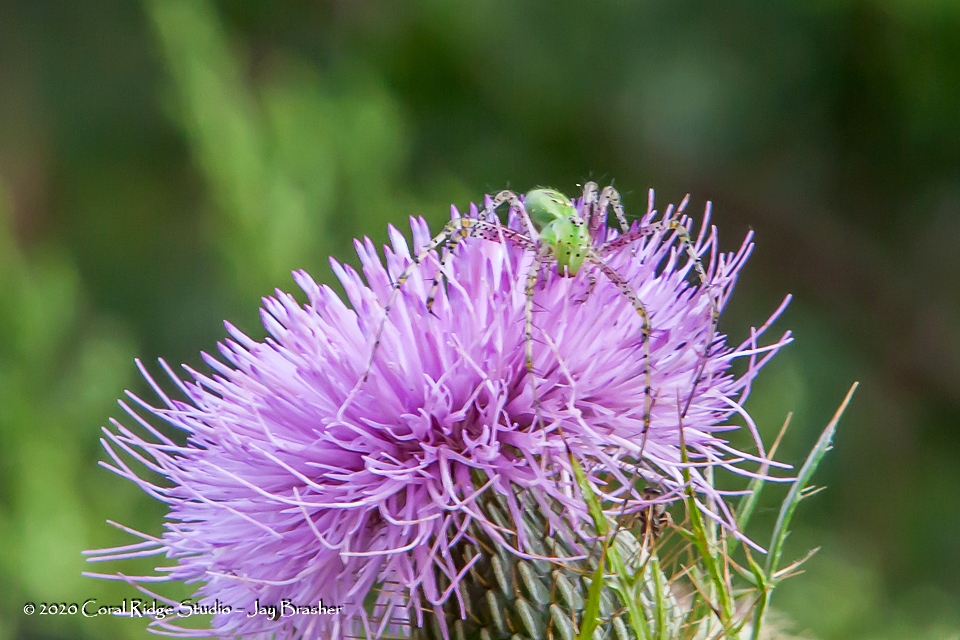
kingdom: Animalia
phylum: Arthropoda
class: Arachnida
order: Araneae
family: Oxyopidae
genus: Peucetia
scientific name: Peucetia viridans
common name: Lynx spiders
